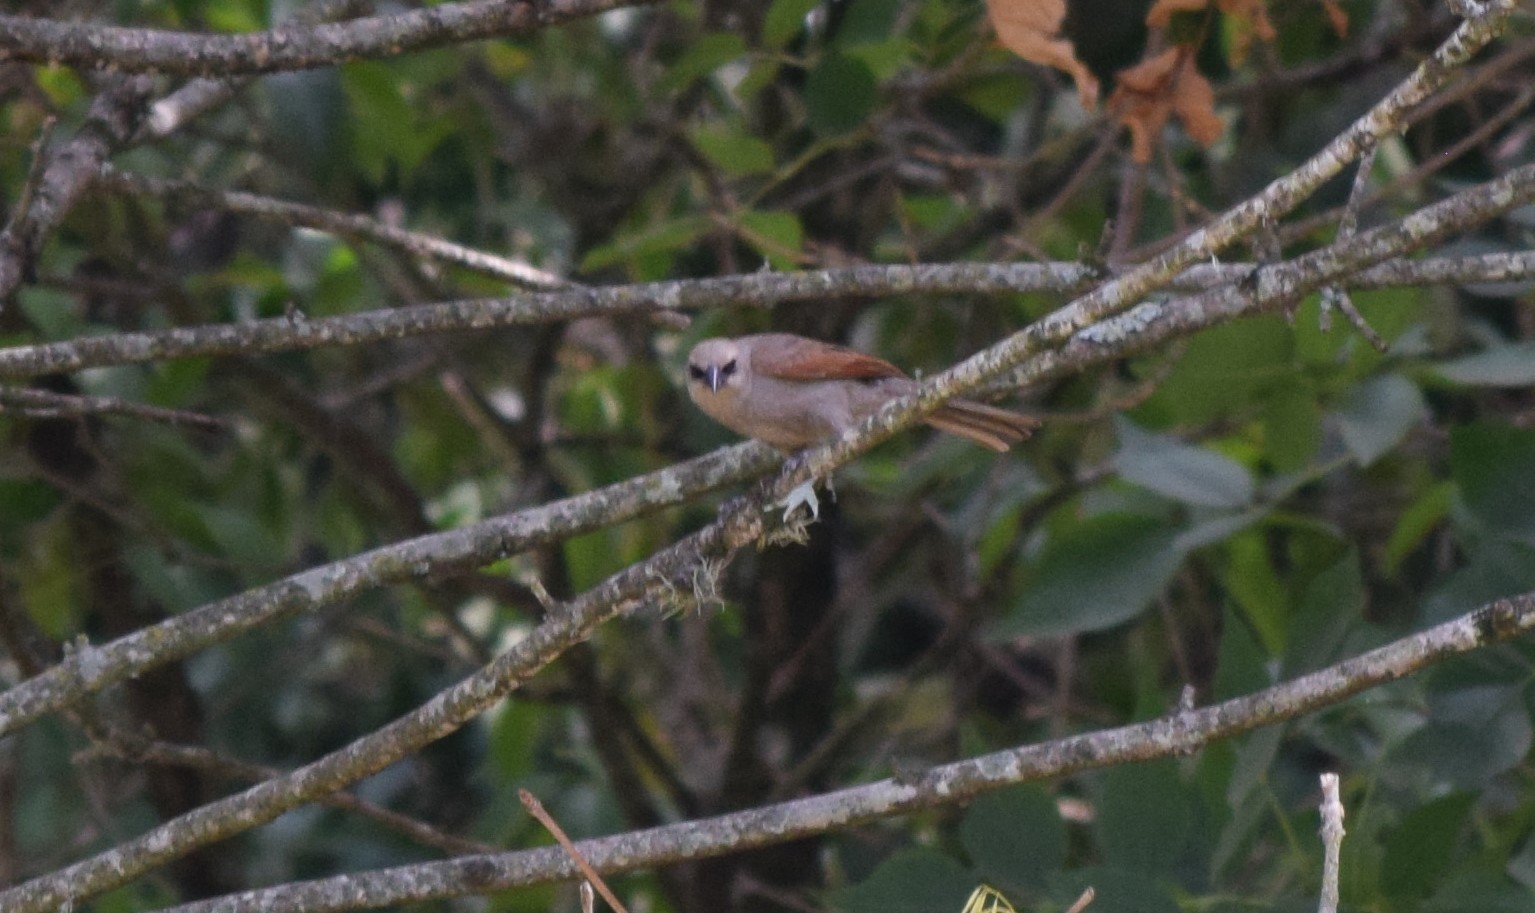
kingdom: Animalia
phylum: Chordata
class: Aves
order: Passeriformes
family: Icteridae
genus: Agelaioides
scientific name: Agelaioides badius
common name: Baywing
